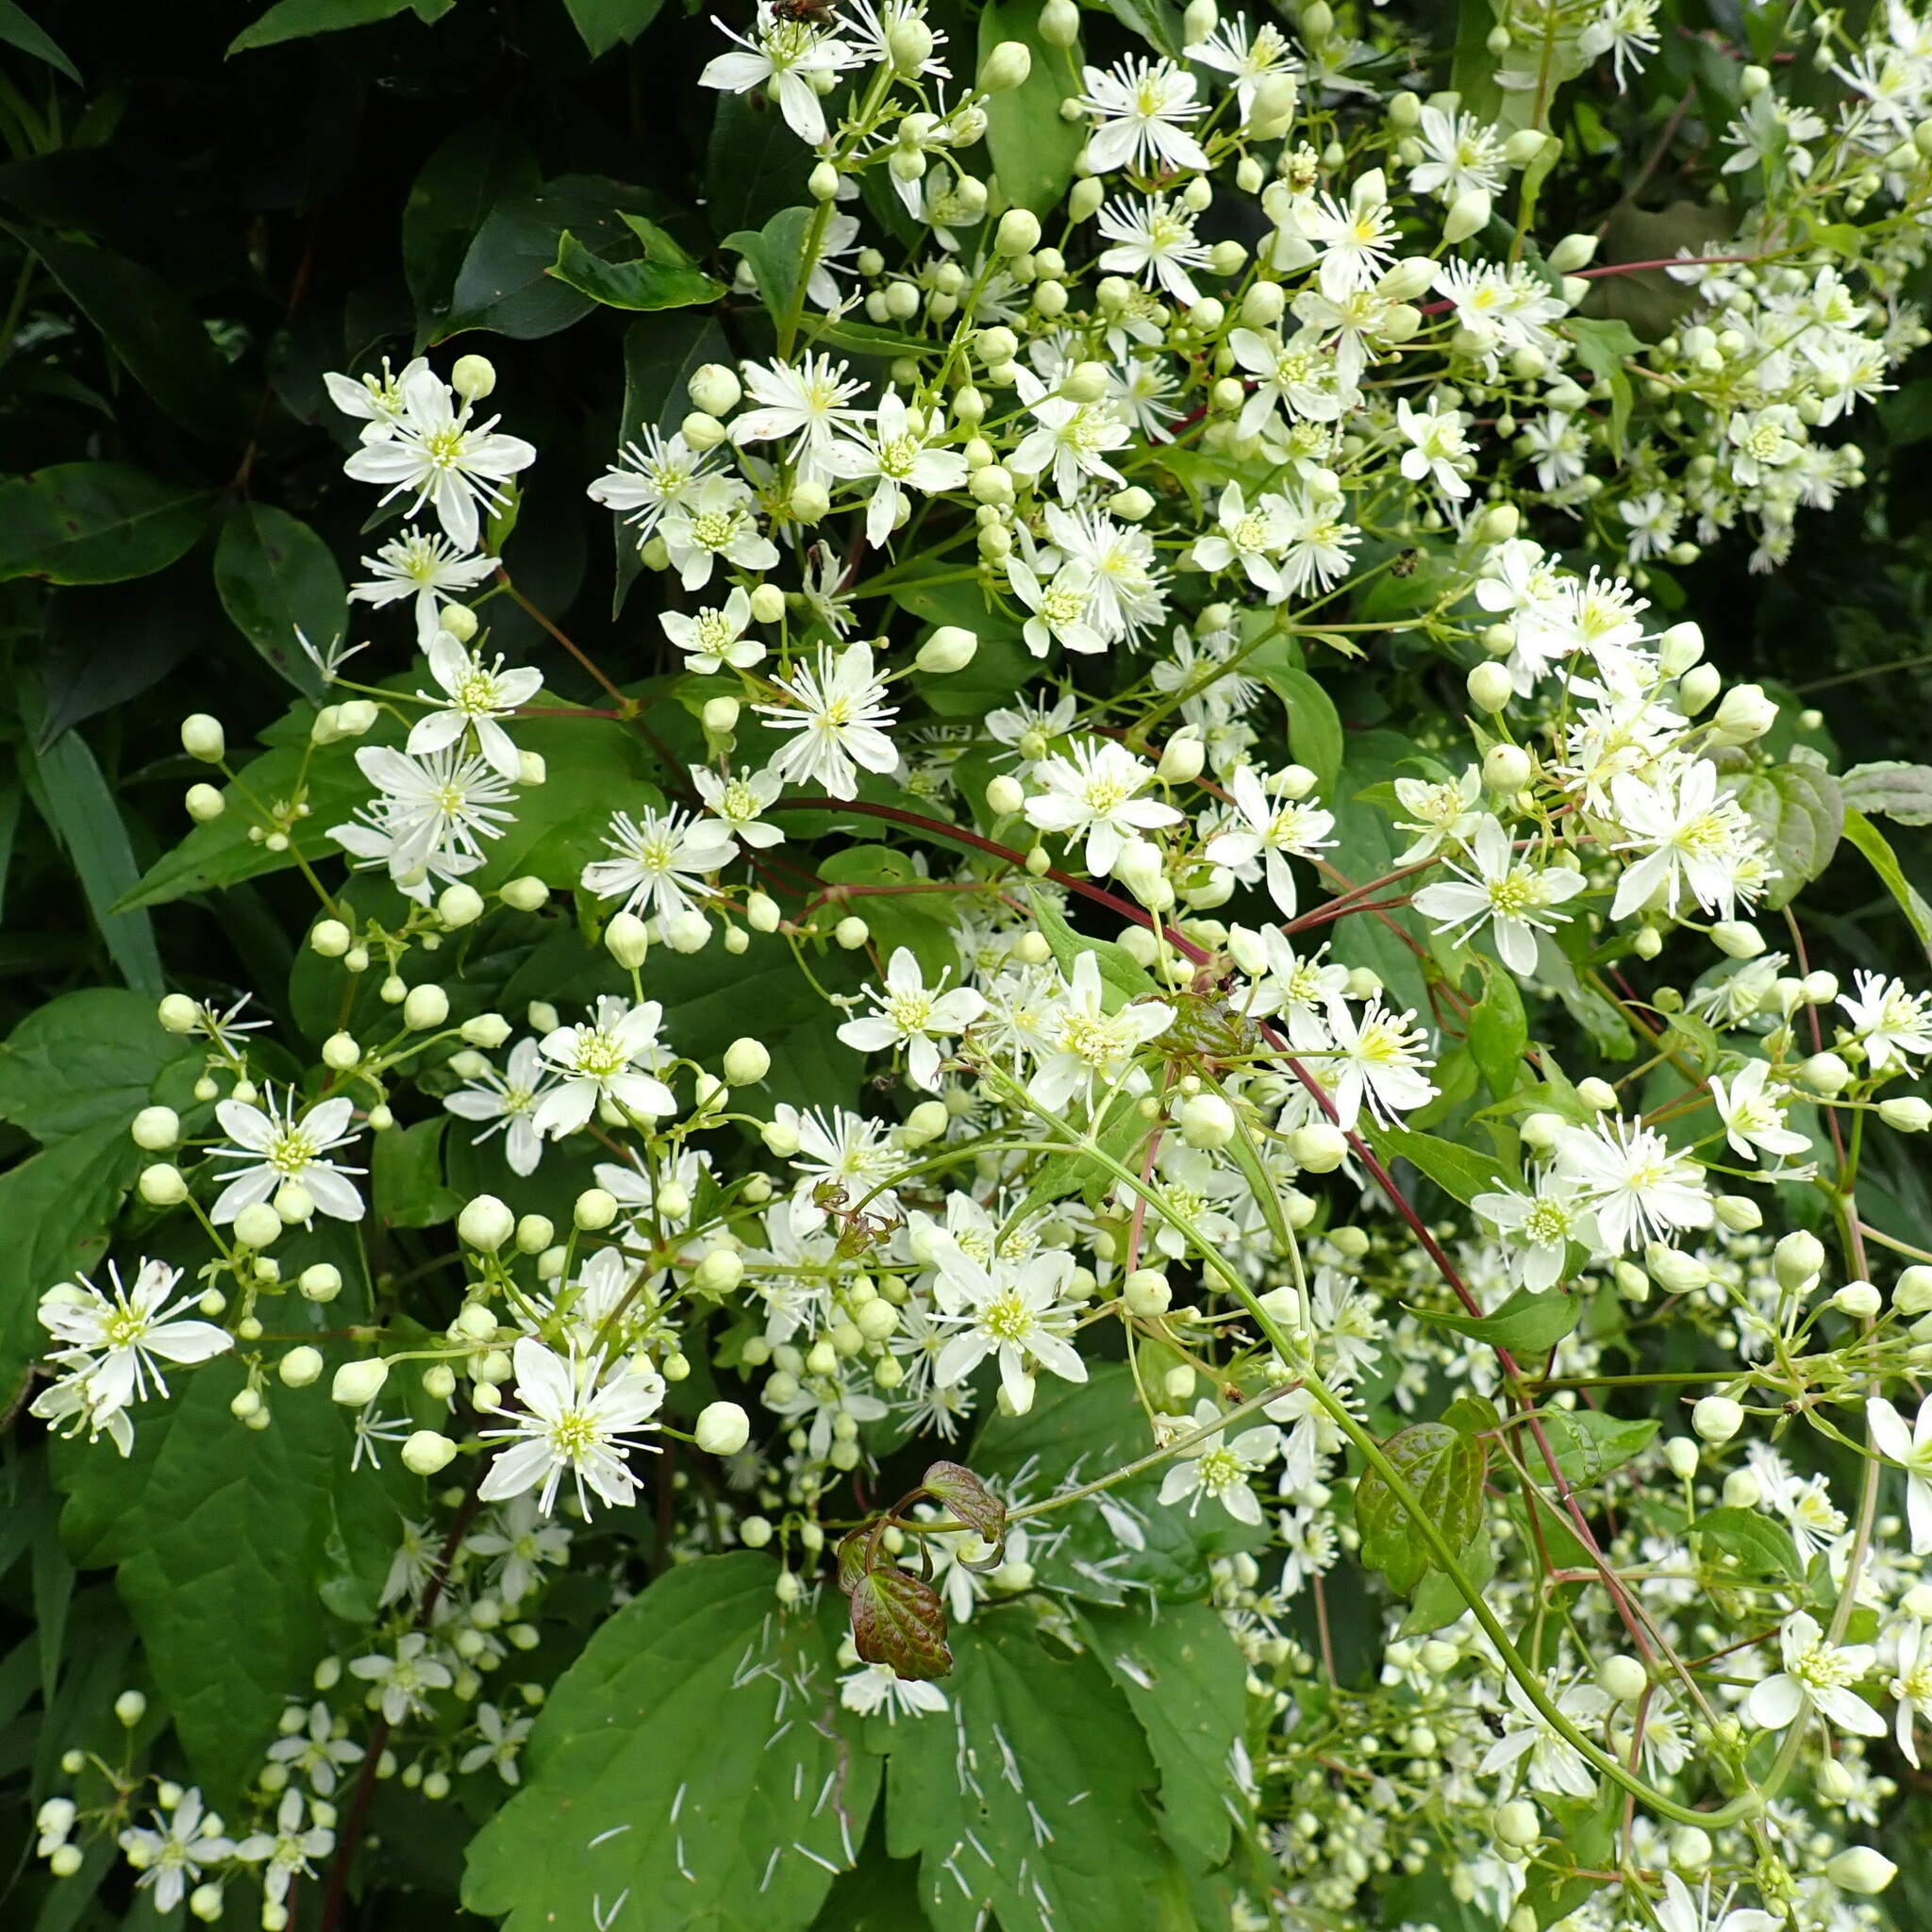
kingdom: Plantae
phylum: Tracheophyta
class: Magnoliopsida
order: Ranunculales
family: Ranunculaceae
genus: Clematis
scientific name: Clematis virginiana
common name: Virgin's-bower
